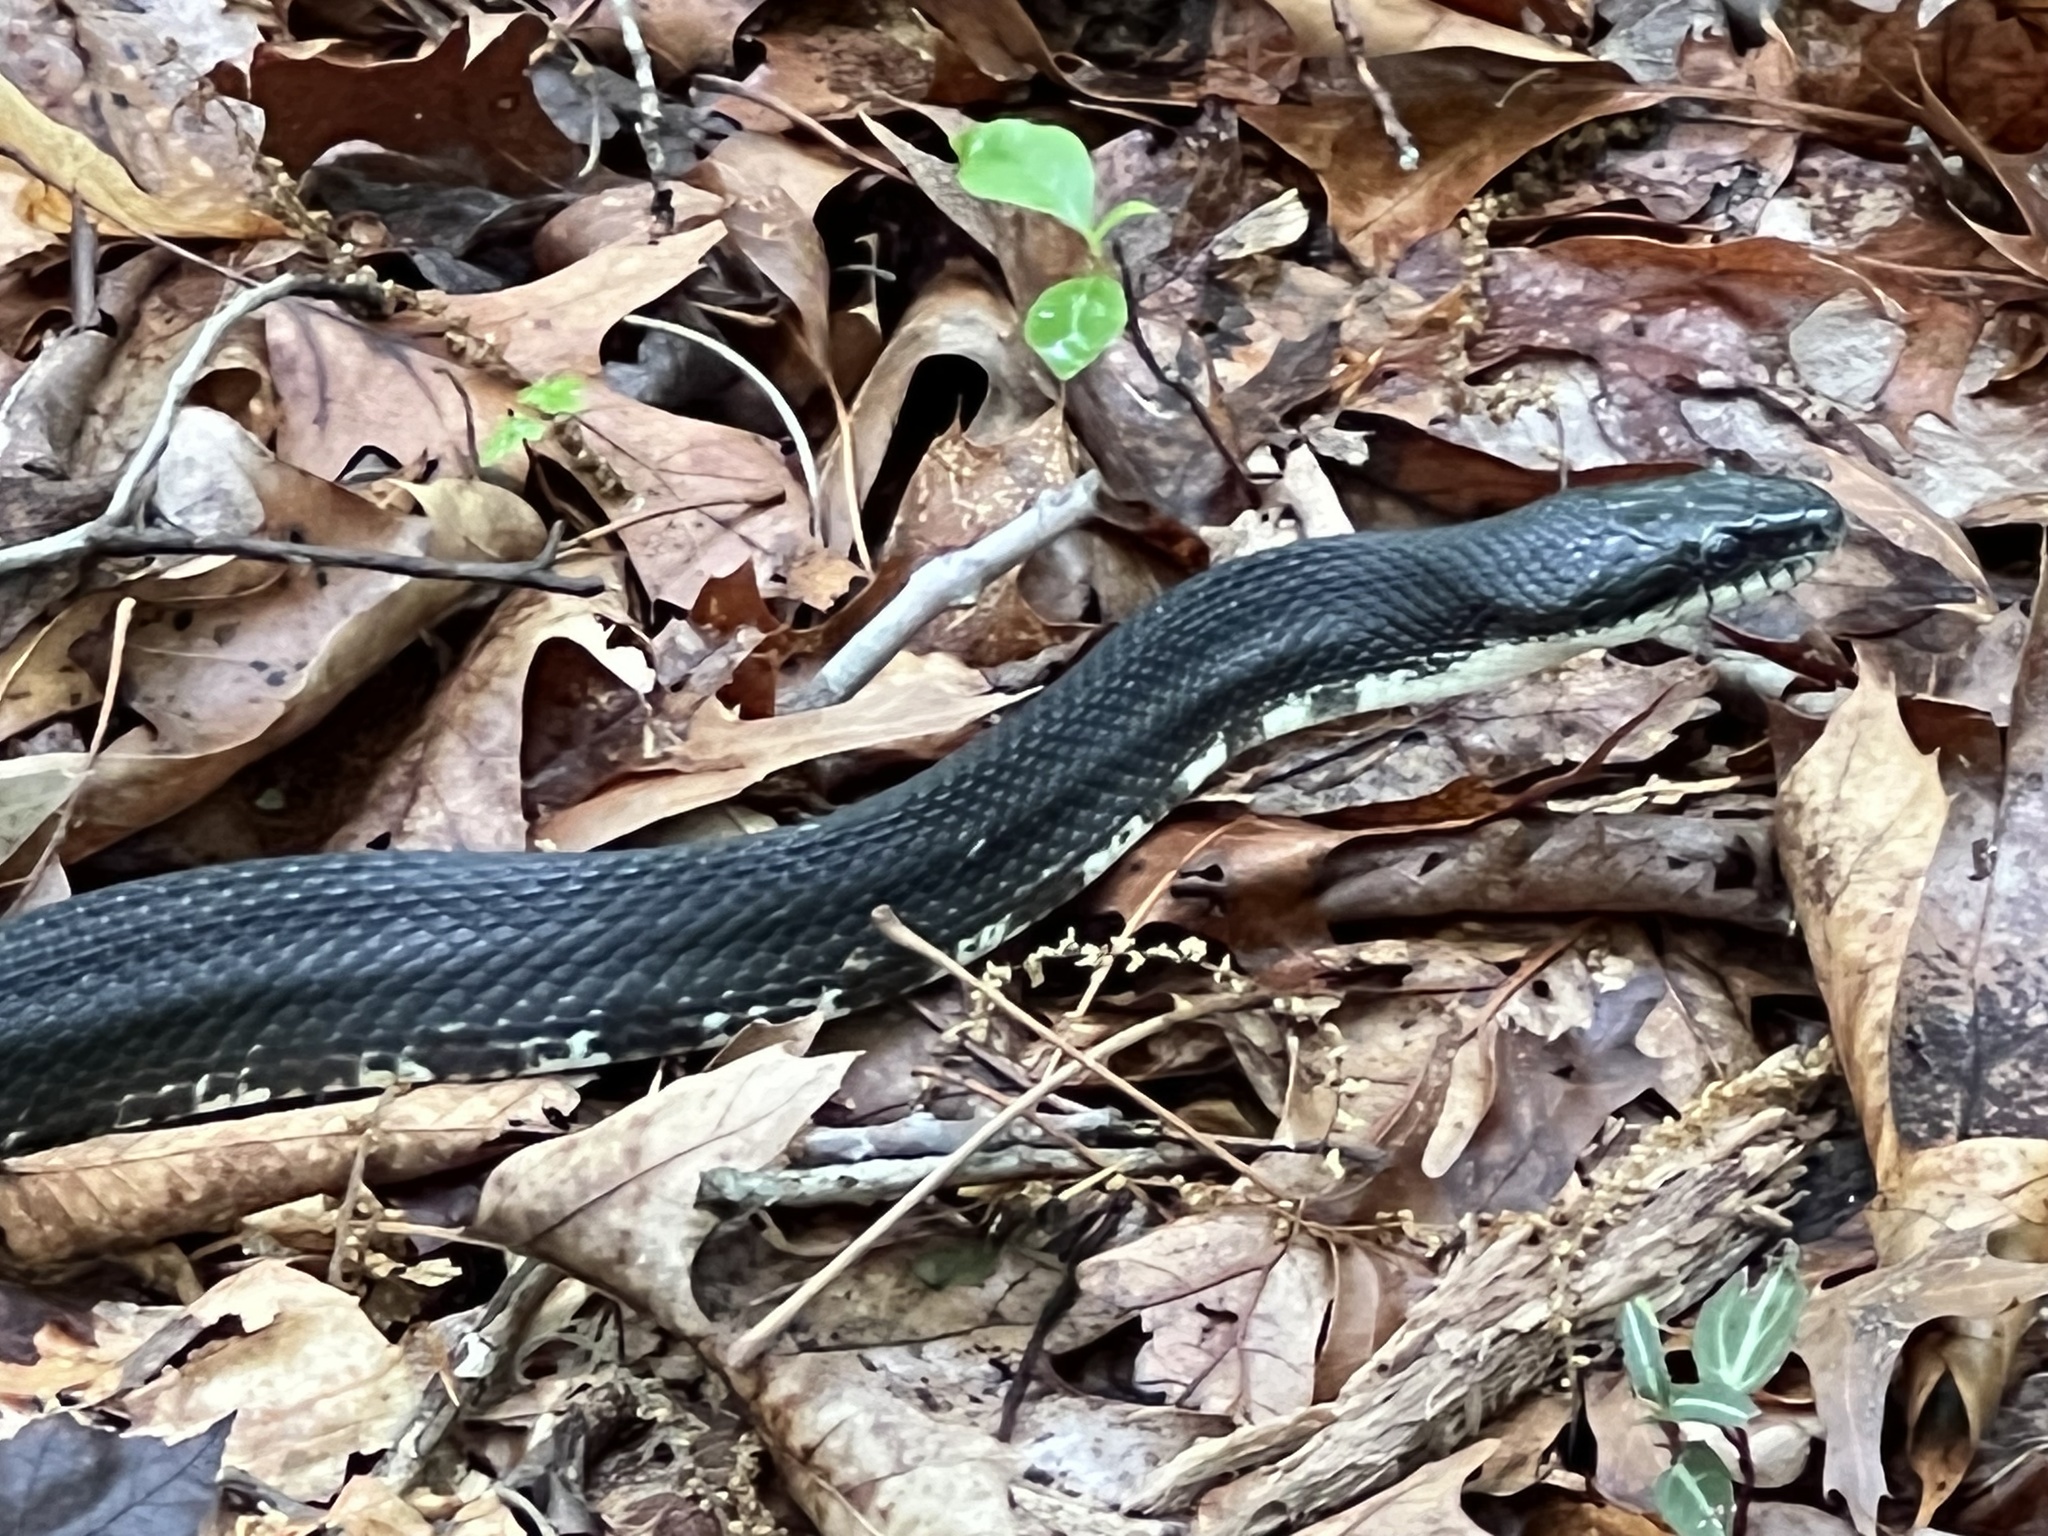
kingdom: Animalia
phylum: Chordata
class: Squamata
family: Colubridae
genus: Pantherophis
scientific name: Pantherophis alleghaniensis
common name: Eastern rat snake
